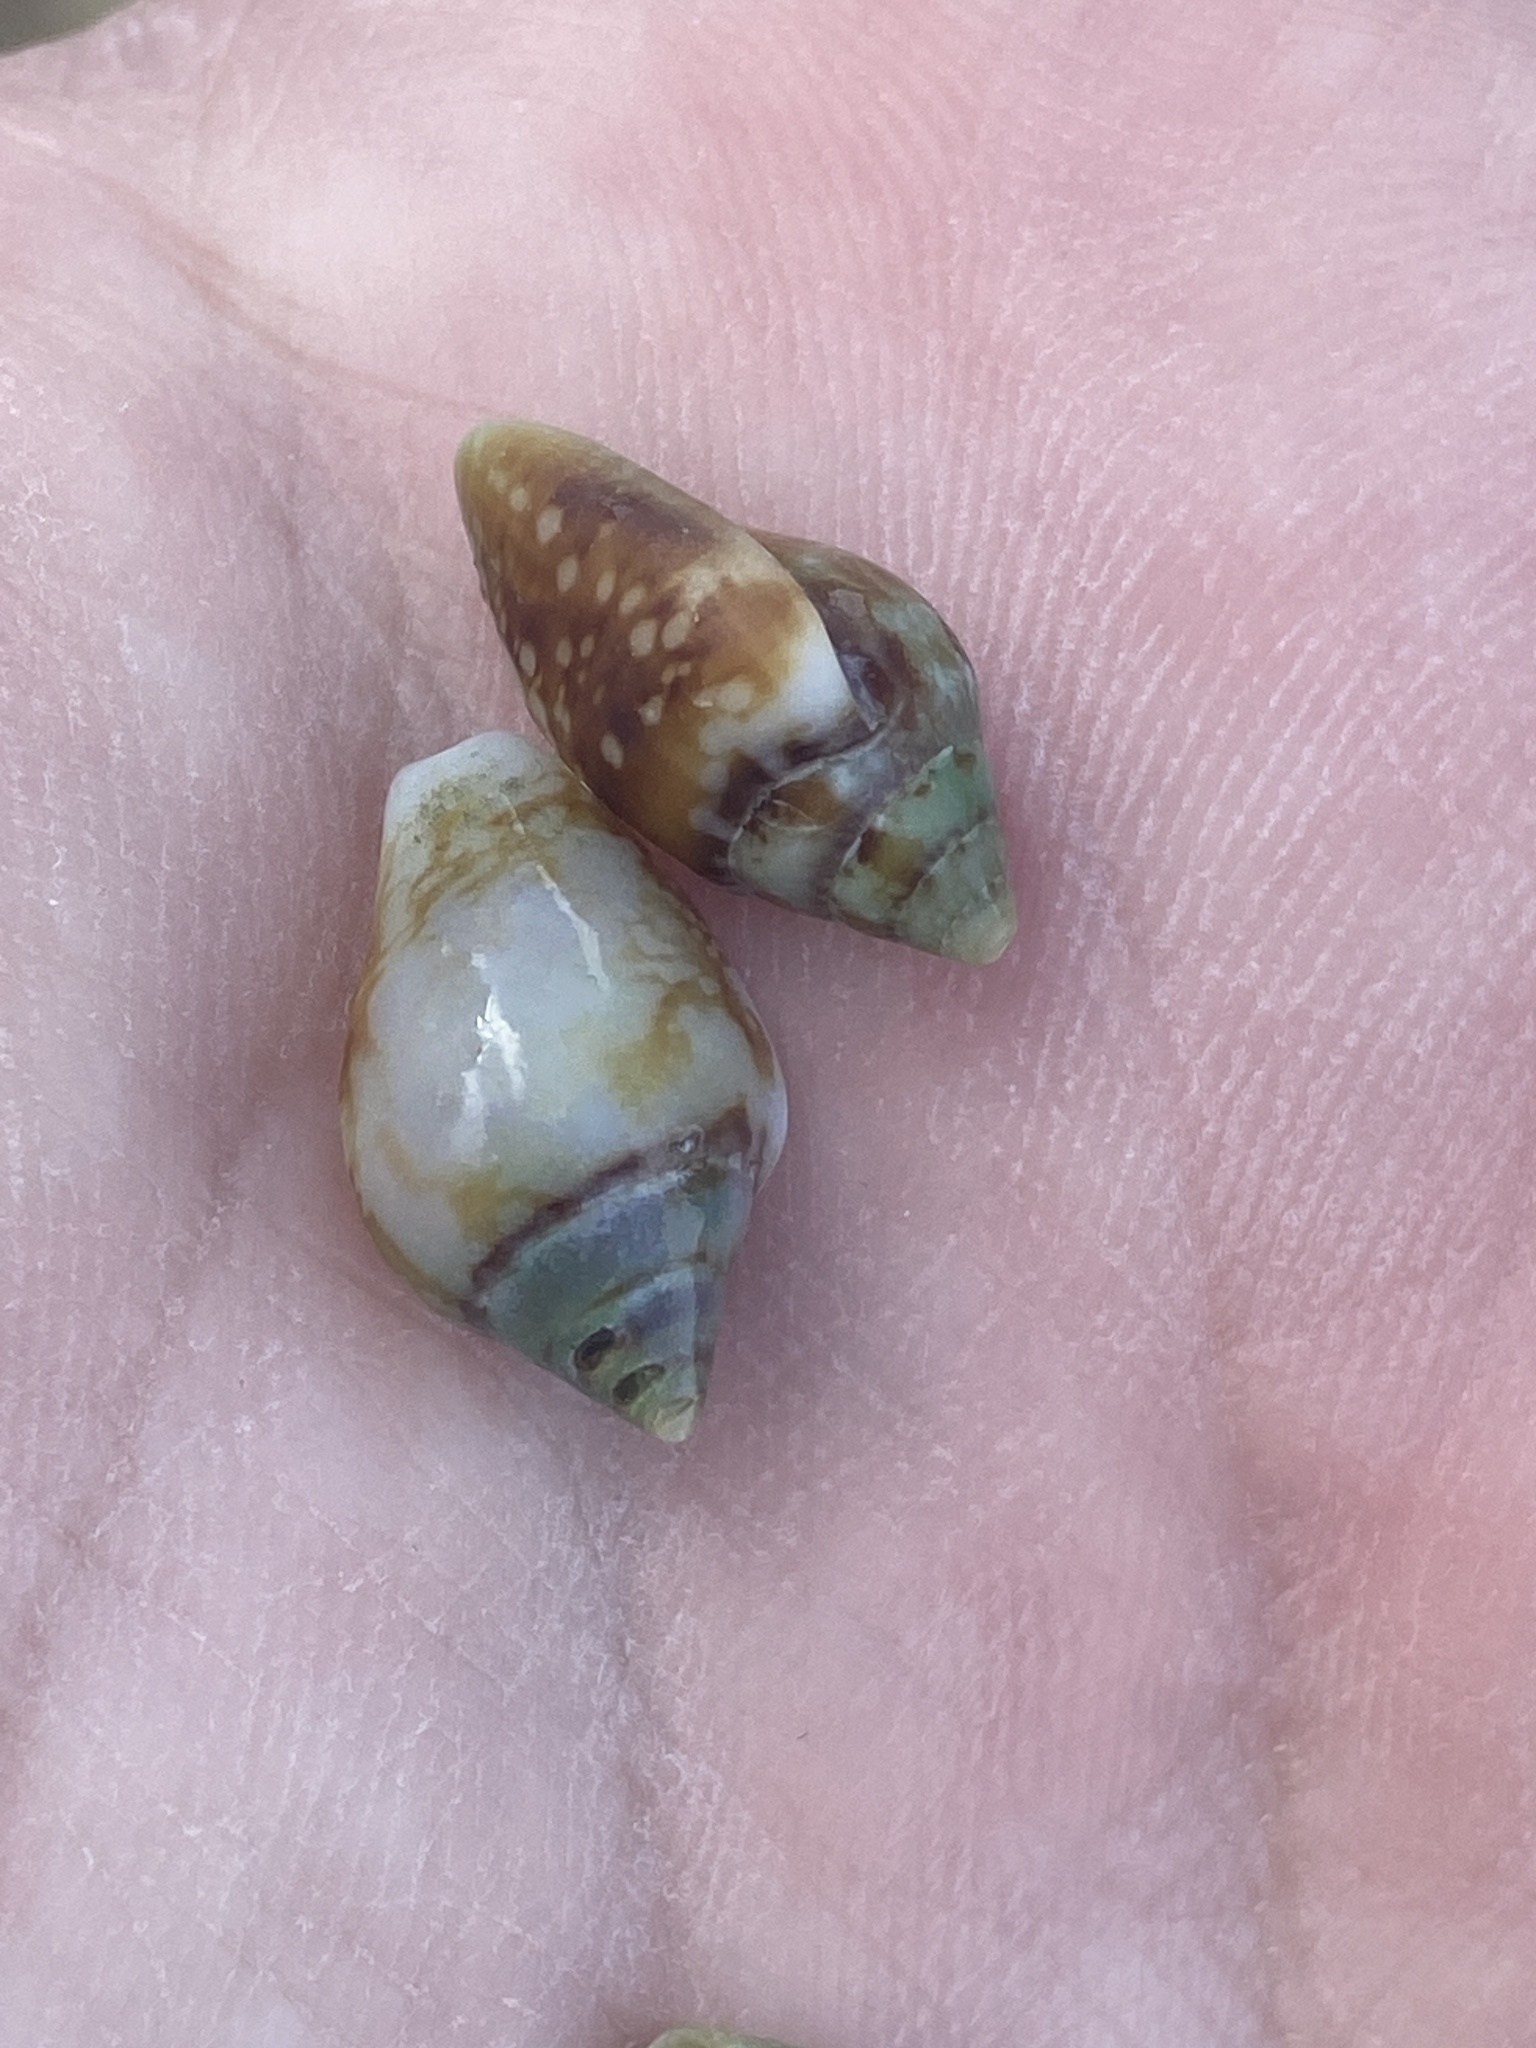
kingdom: Animalia
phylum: Mollusca
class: Gastropoda
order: Neogastropoda
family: Columbellidae
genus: Columbella
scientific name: Columbella rustica
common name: Rustic dove shell
